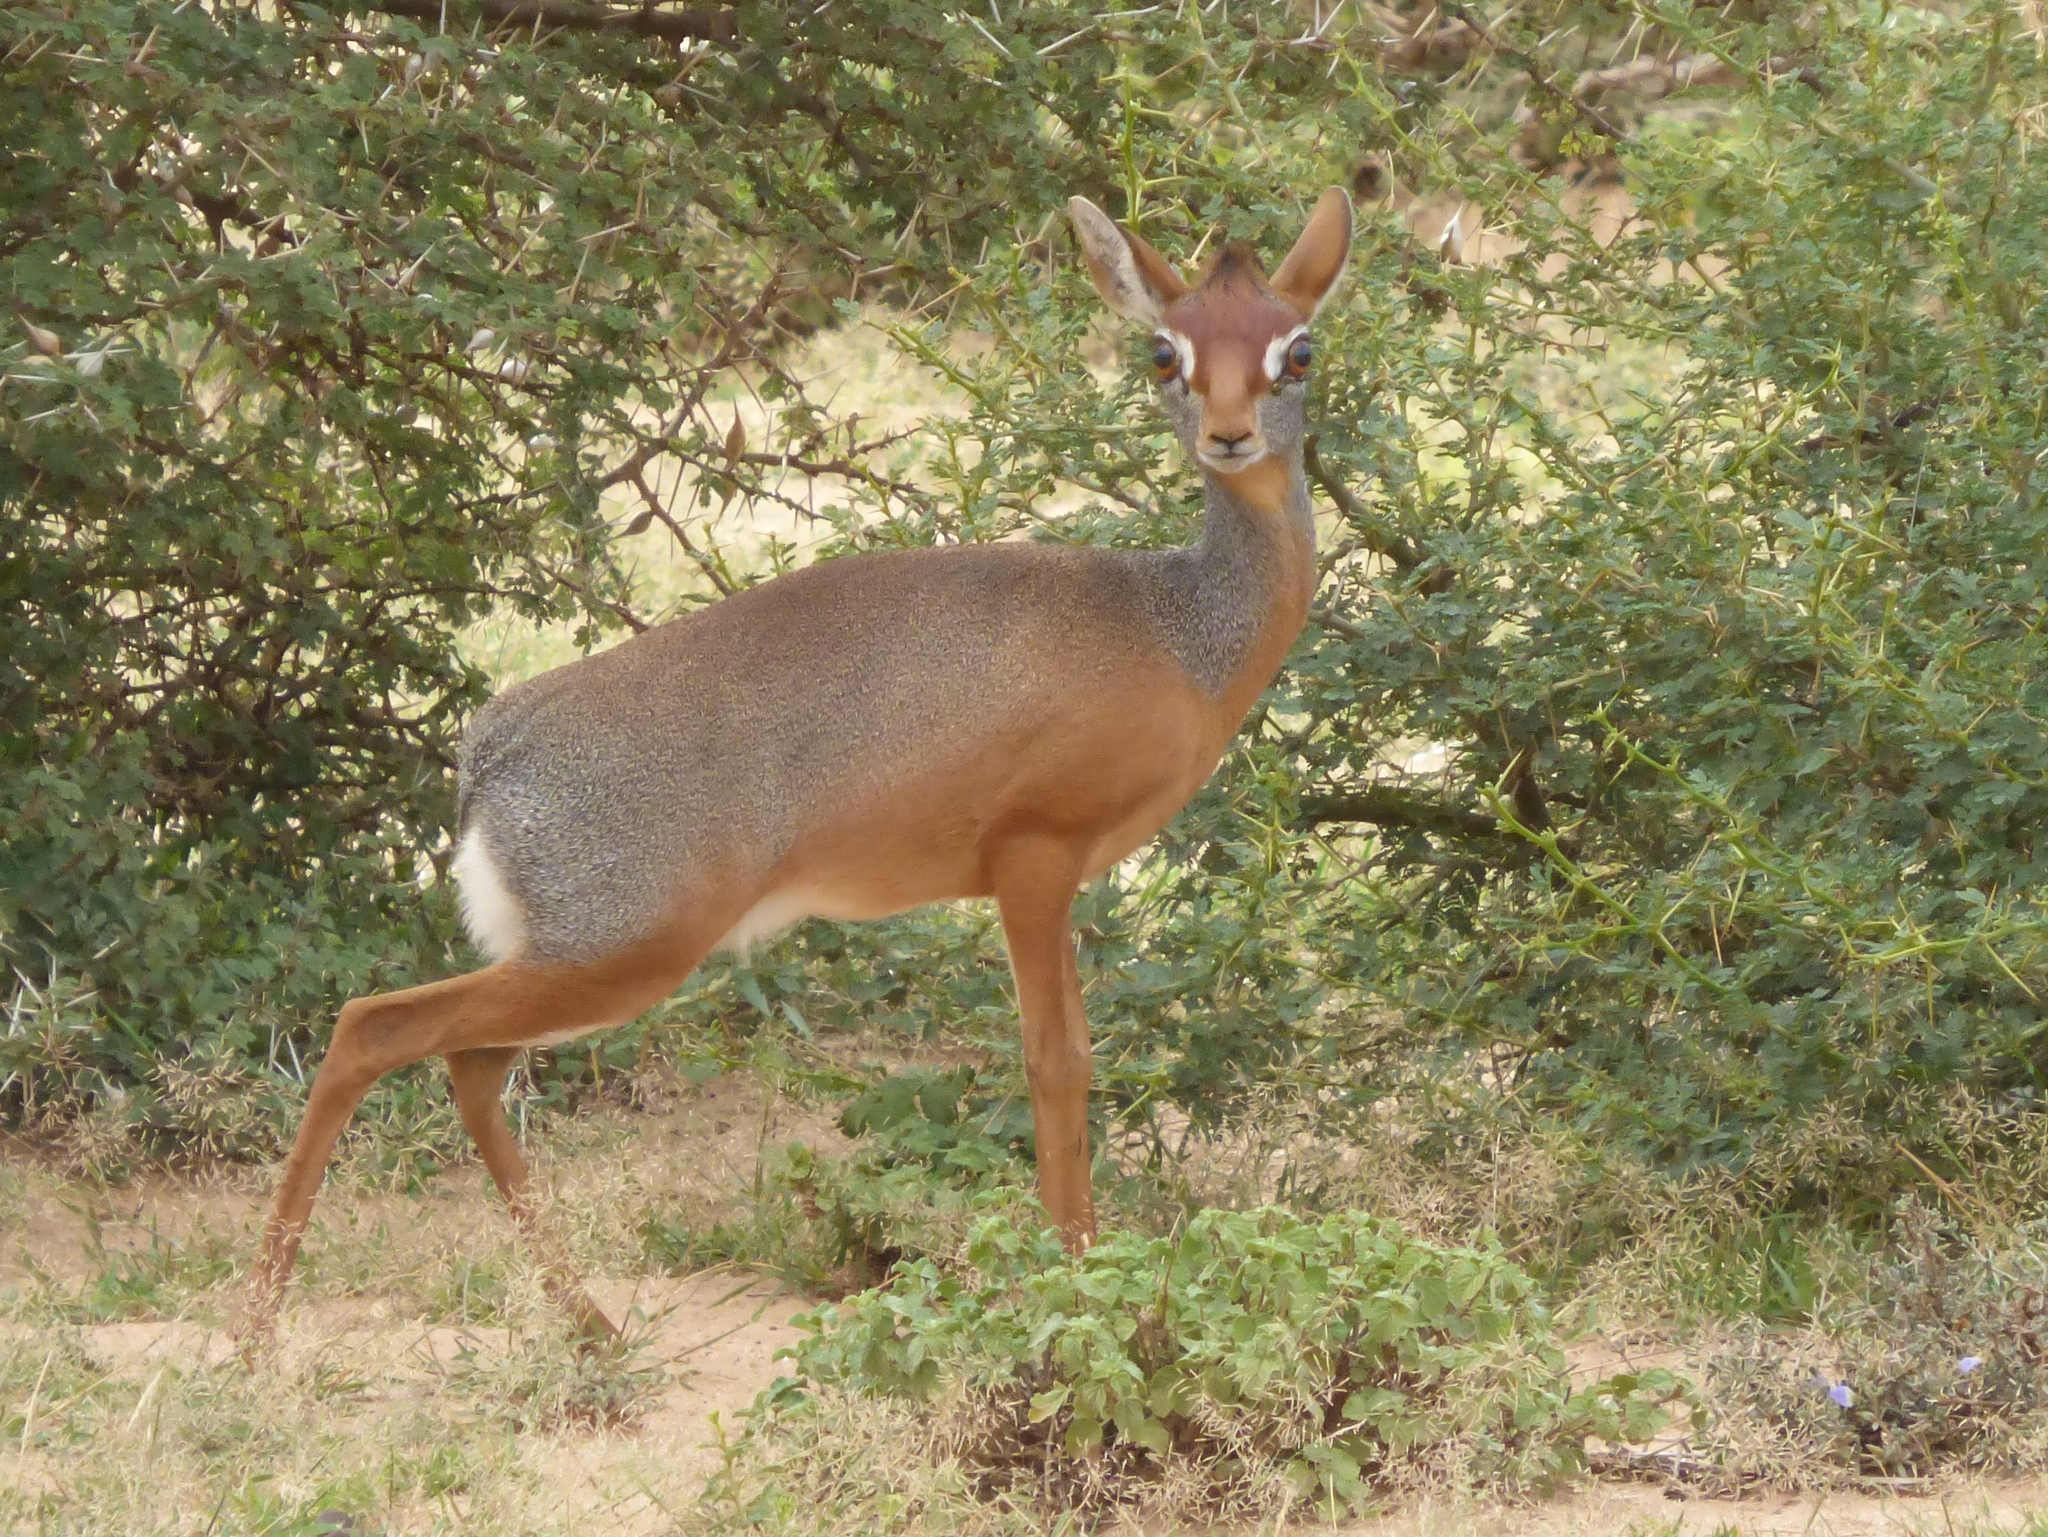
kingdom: Animalia
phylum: Chordata
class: Mammalia
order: Artiodactyla
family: Bovidae
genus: Madoqua
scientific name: Madoqua saltiana
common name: Salt's dikdik
